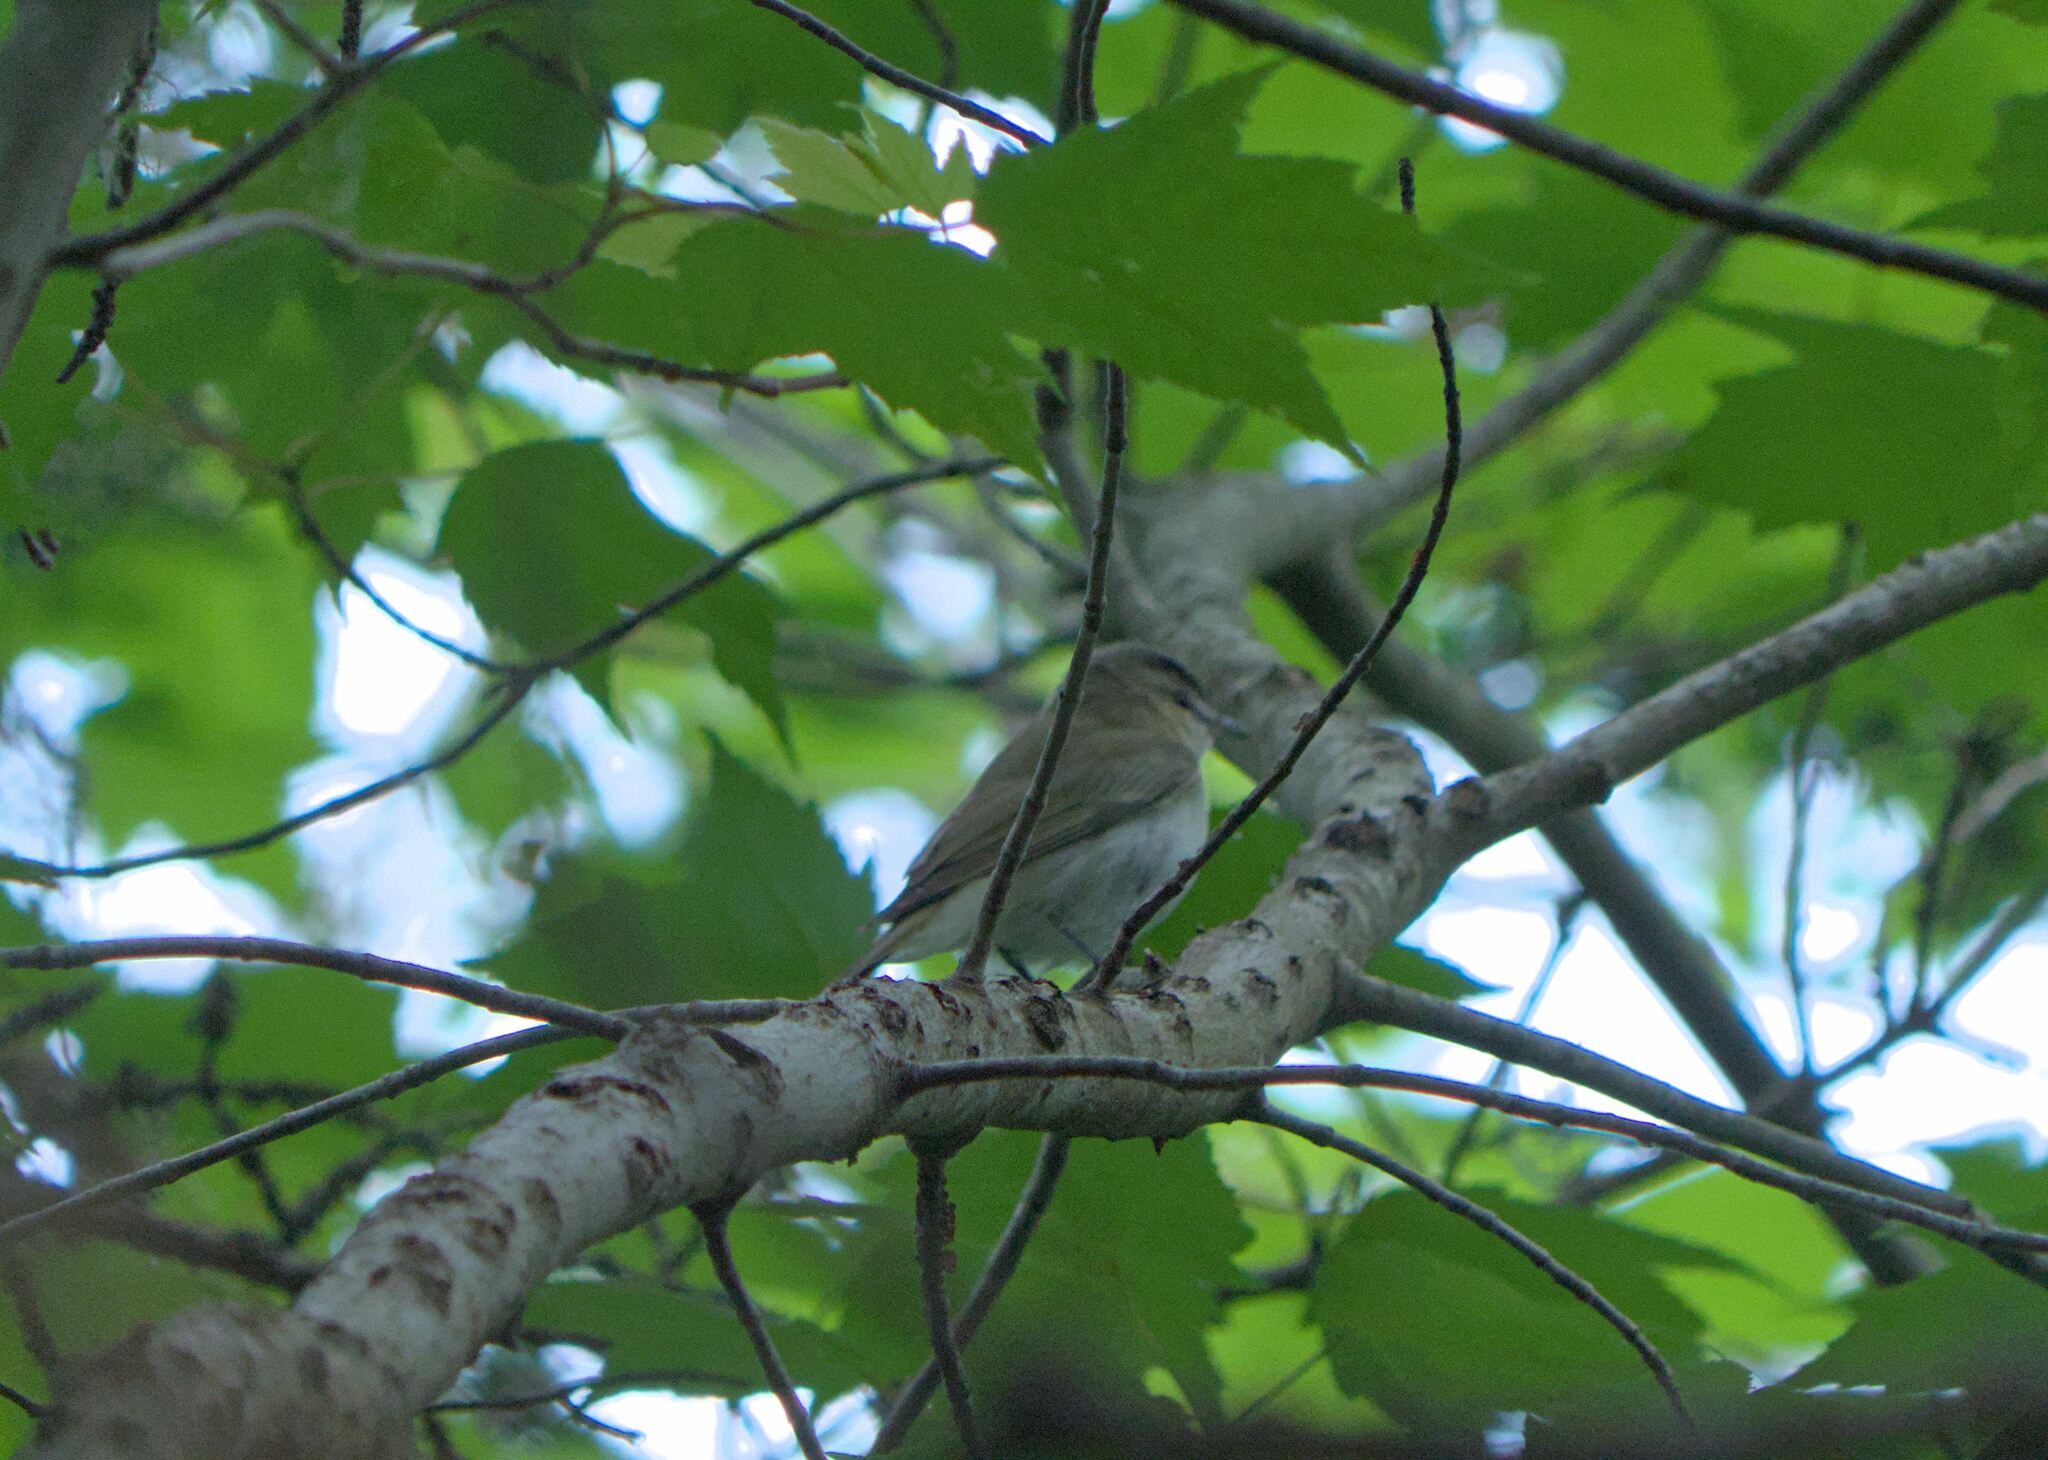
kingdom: Animalia
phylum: Chordata
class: Aves
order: Passeriformes
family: Vireonidae
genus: Vireo
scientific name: Vireo olivaceus
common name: Red-eyed vireo
